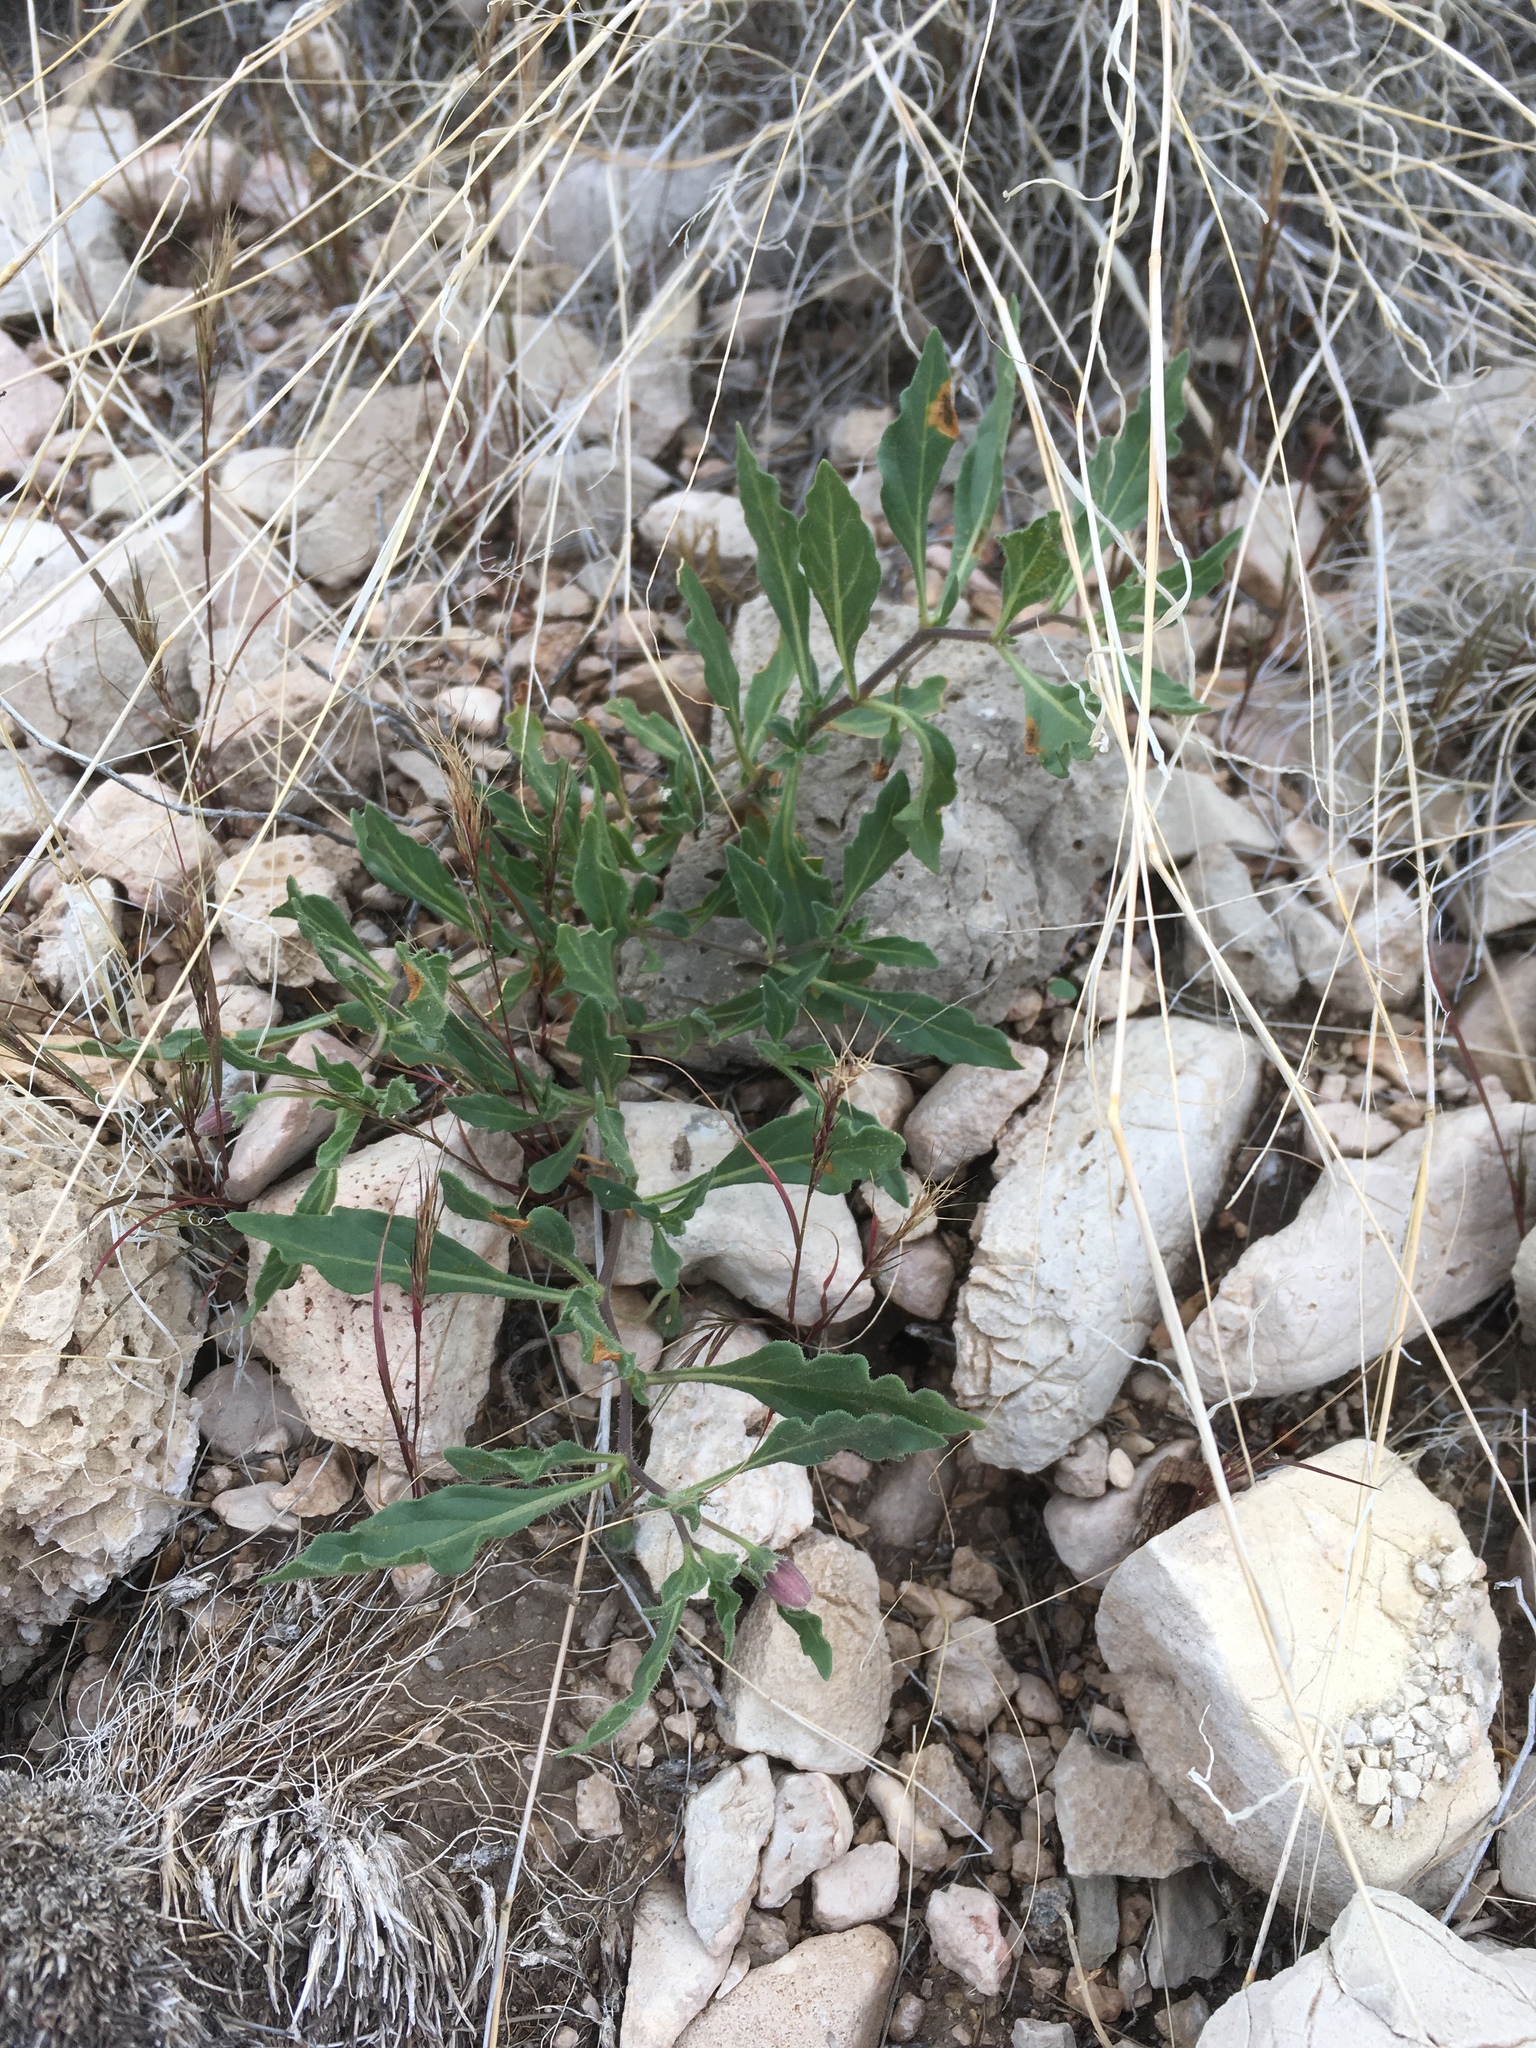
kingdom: Plantae
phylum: Tracheophyta
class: Magnoliopsida
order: Solanales
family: Solanaceae
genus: Chamaesaracha
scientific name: Chamaesaracha pallida
